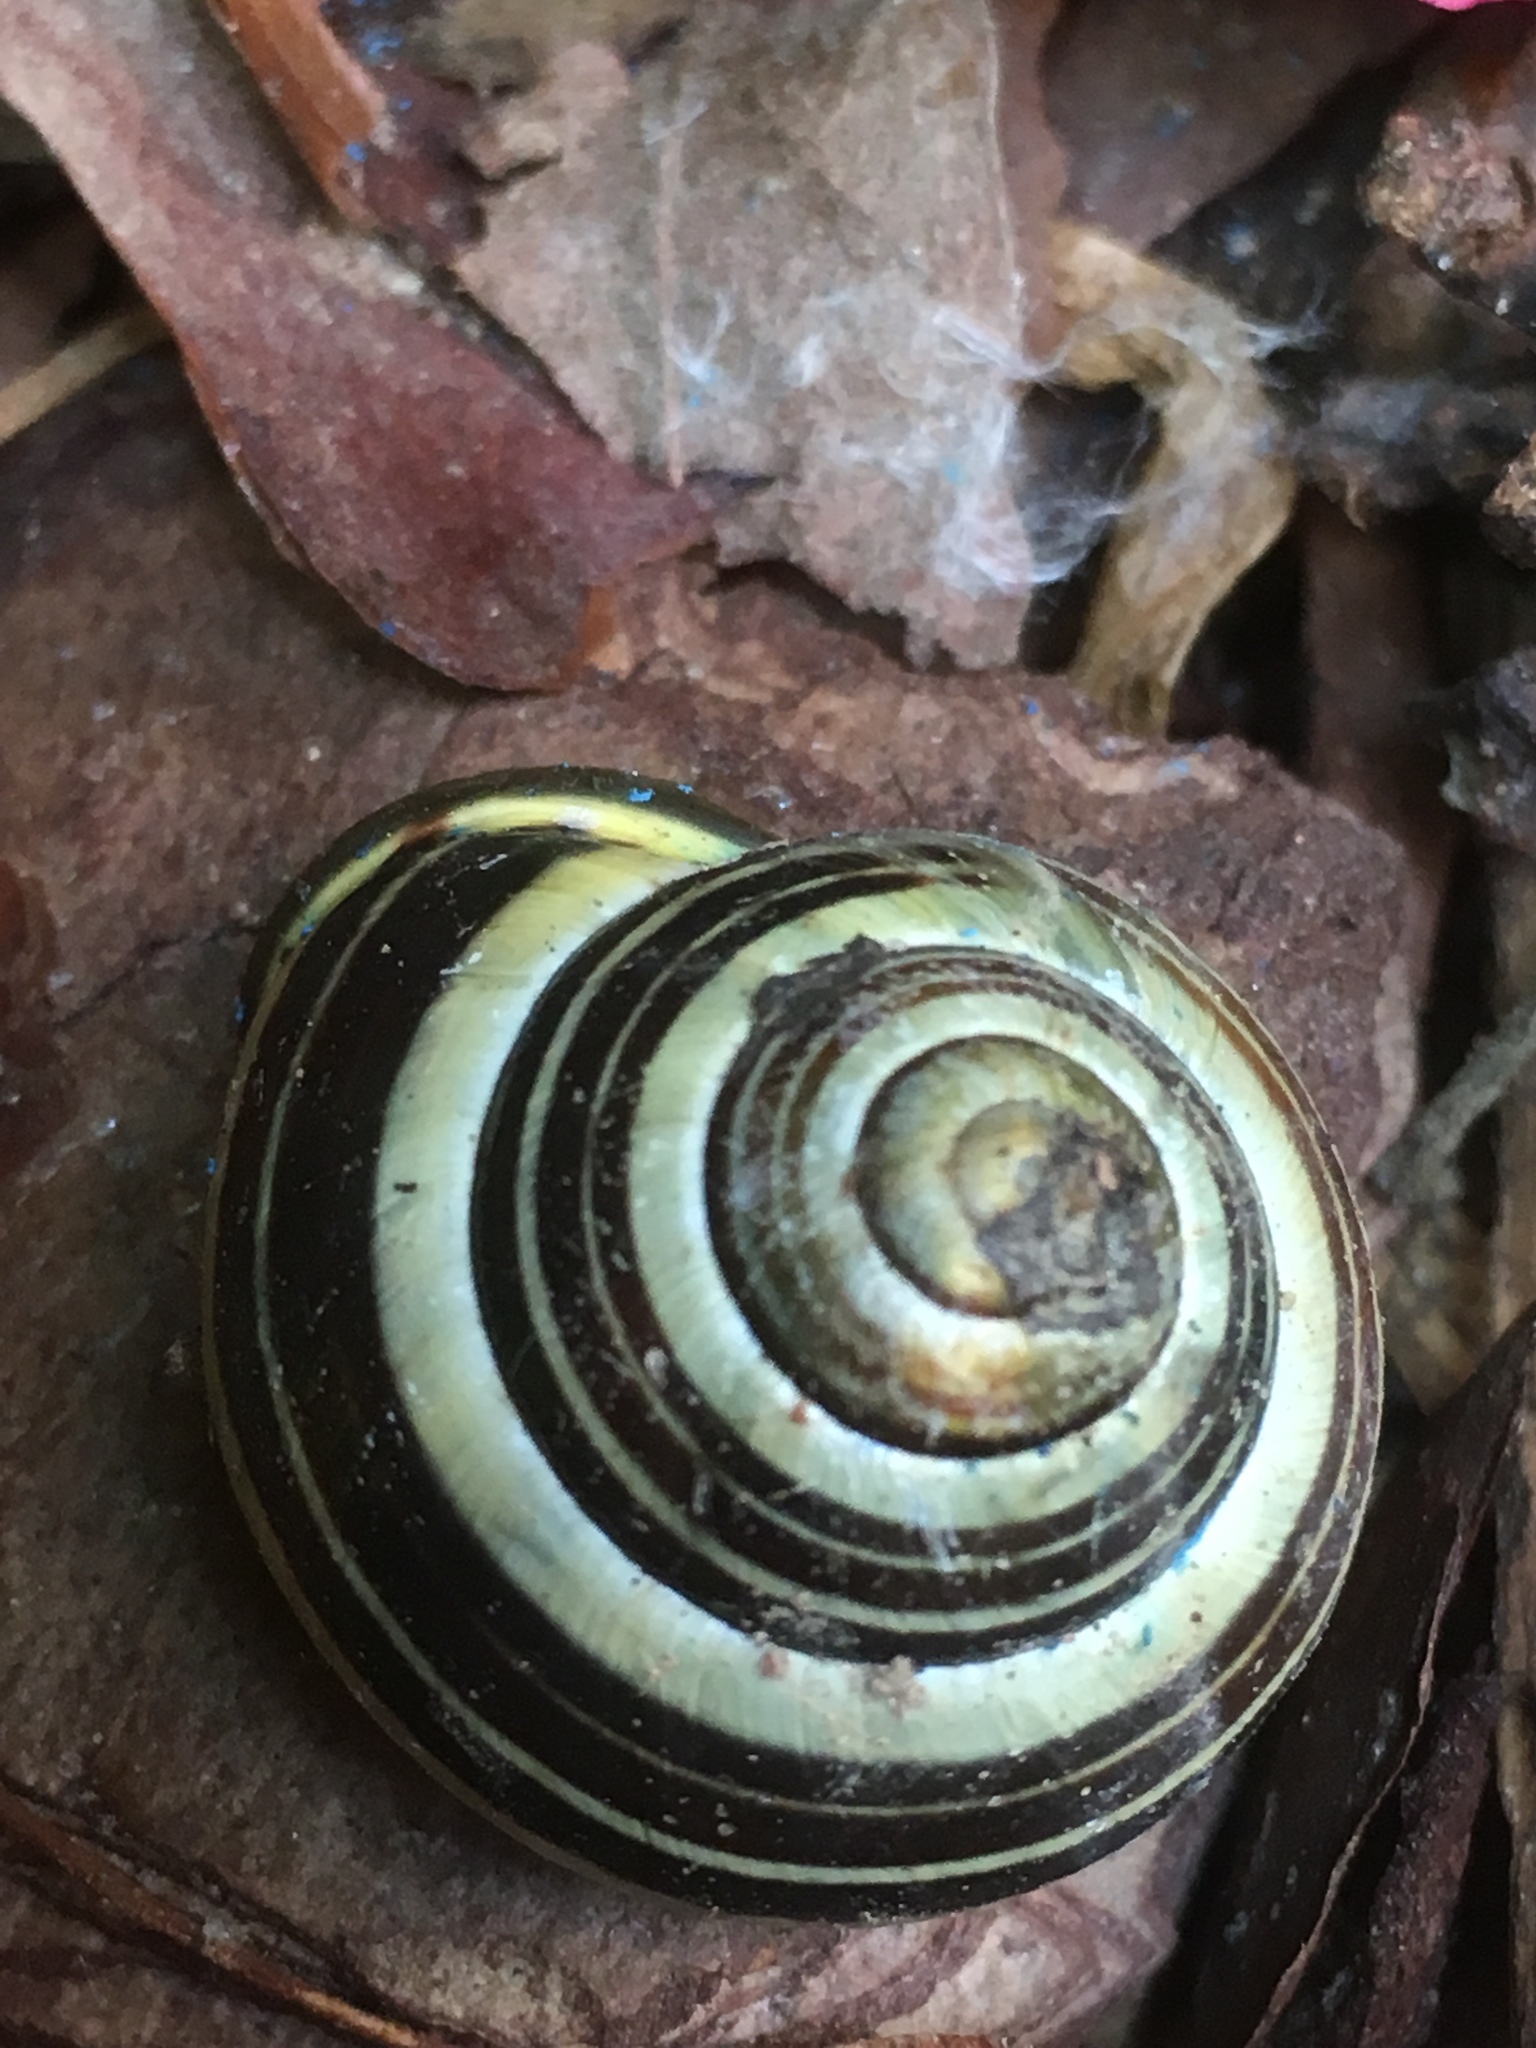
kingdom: Animalia
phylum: Mollusca
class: Gastropoda
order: Stylommatophora
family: Helicidae
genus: Cepaea
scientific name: Cepaea nemoralis
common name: Grovesnail
